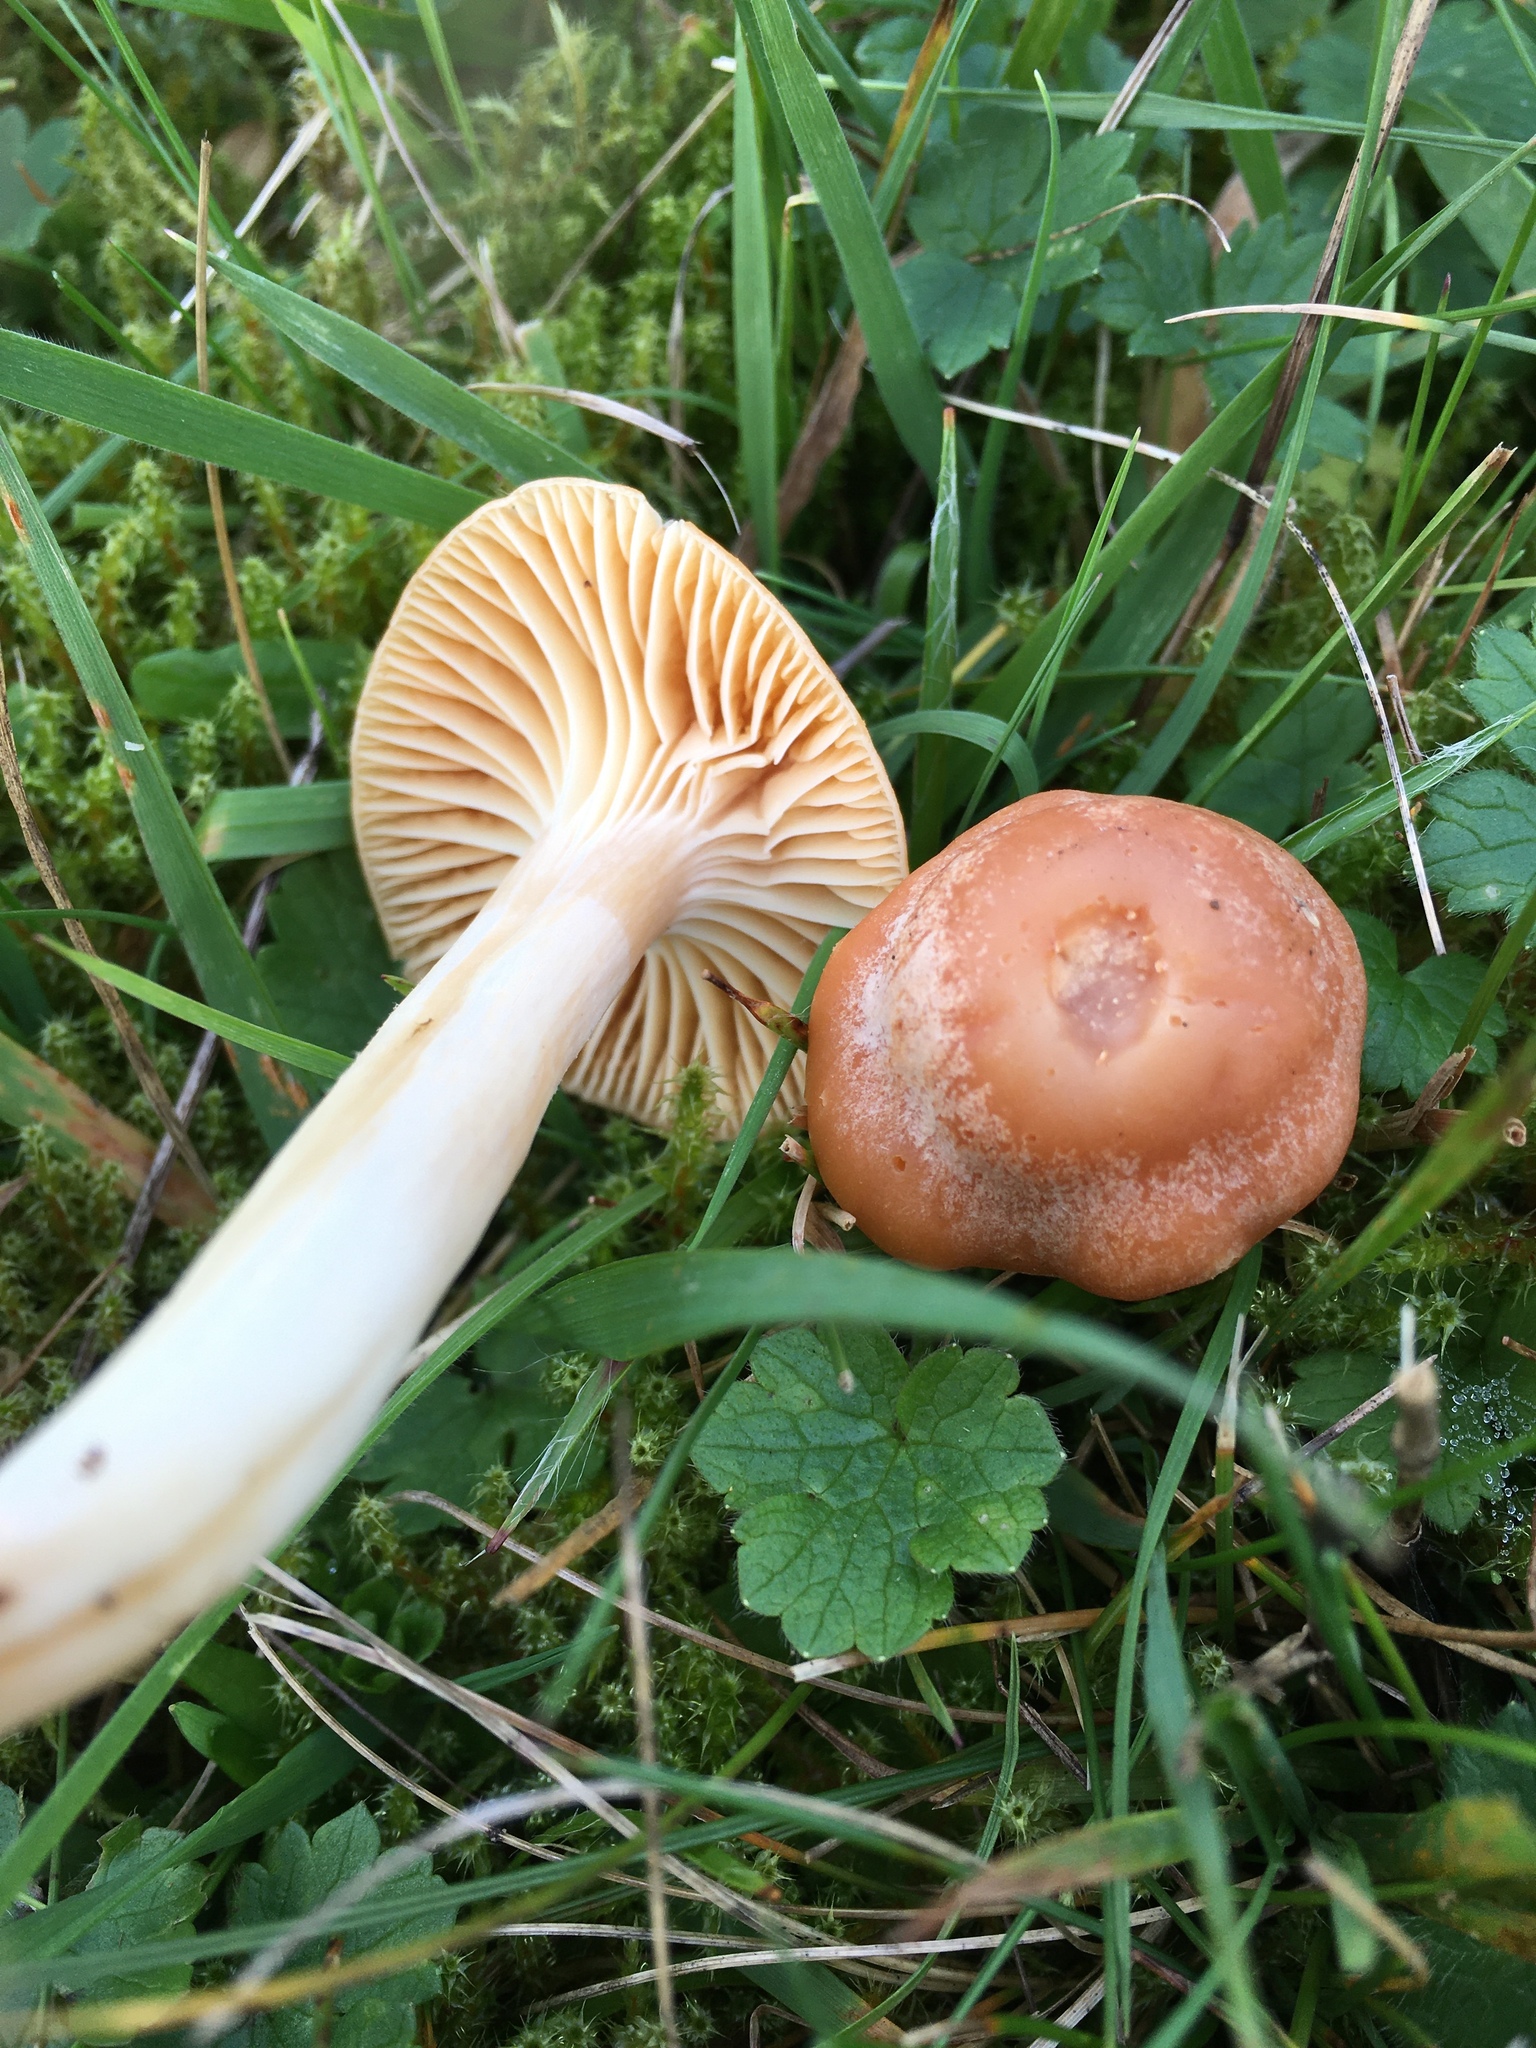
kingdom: Fungi
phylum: Basidiomycota
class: Agaricomycetes
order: Agaricales
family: Hygrophoraceae
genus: Cuphophyllus
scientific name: Cuphophyllus pratensis
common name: Meadow waxcap
